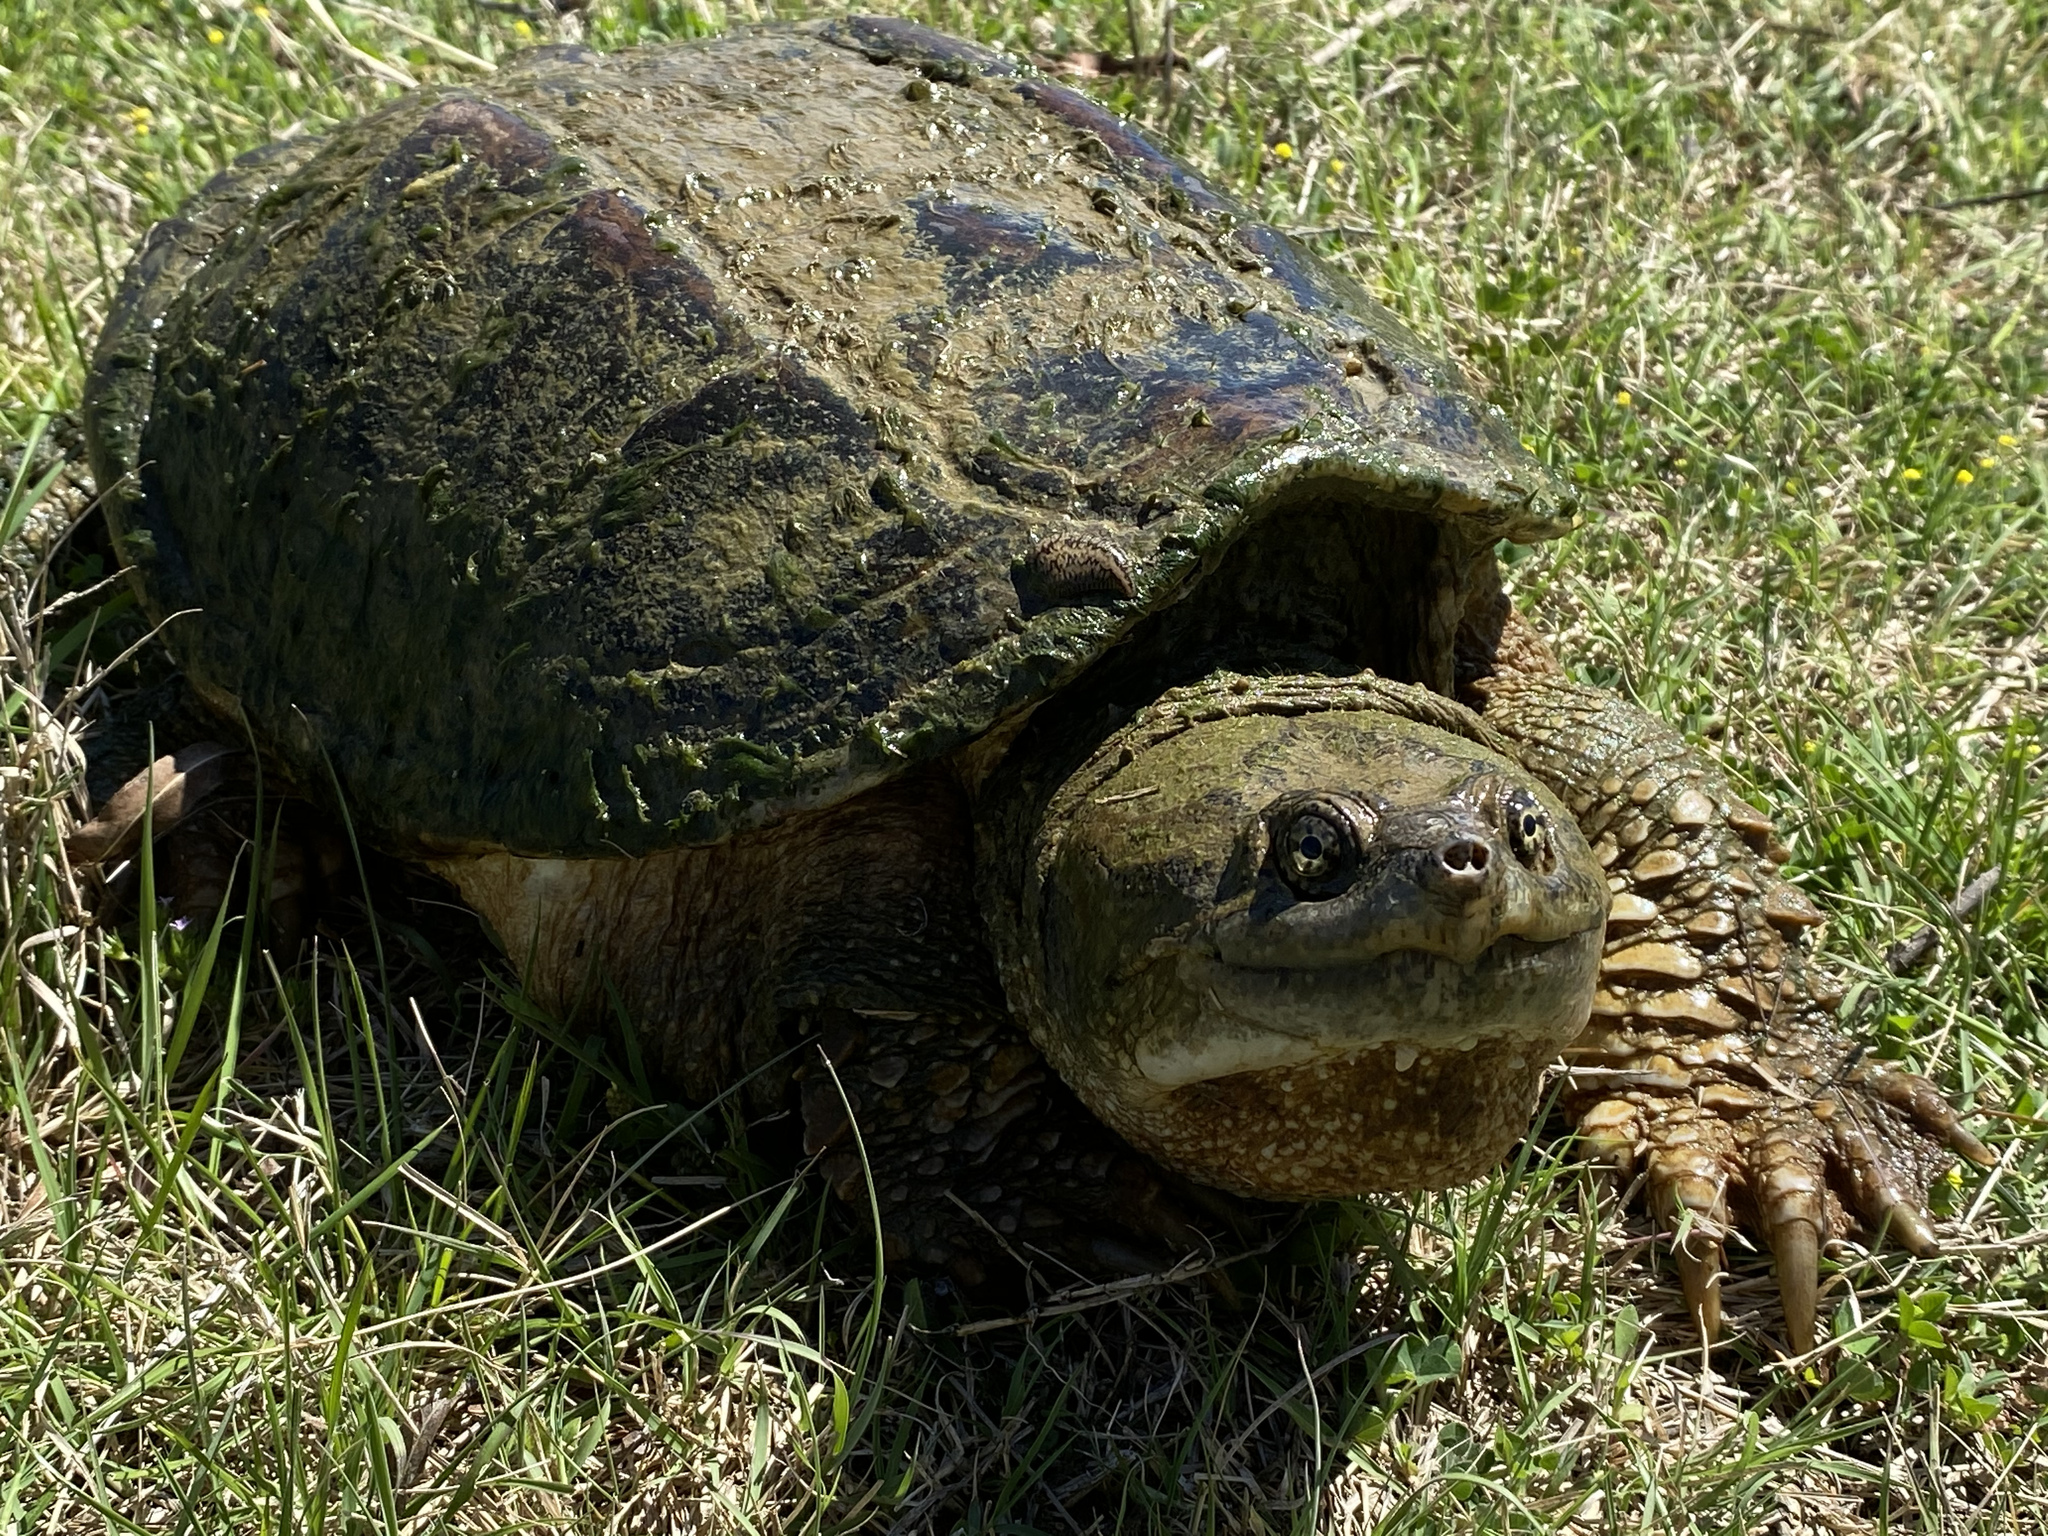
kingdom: Animalia
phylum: Chordata
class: Testudines
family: Chelydridae
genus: Chelydra
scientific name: Chelydra serpentina
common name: Common snapping turtle
